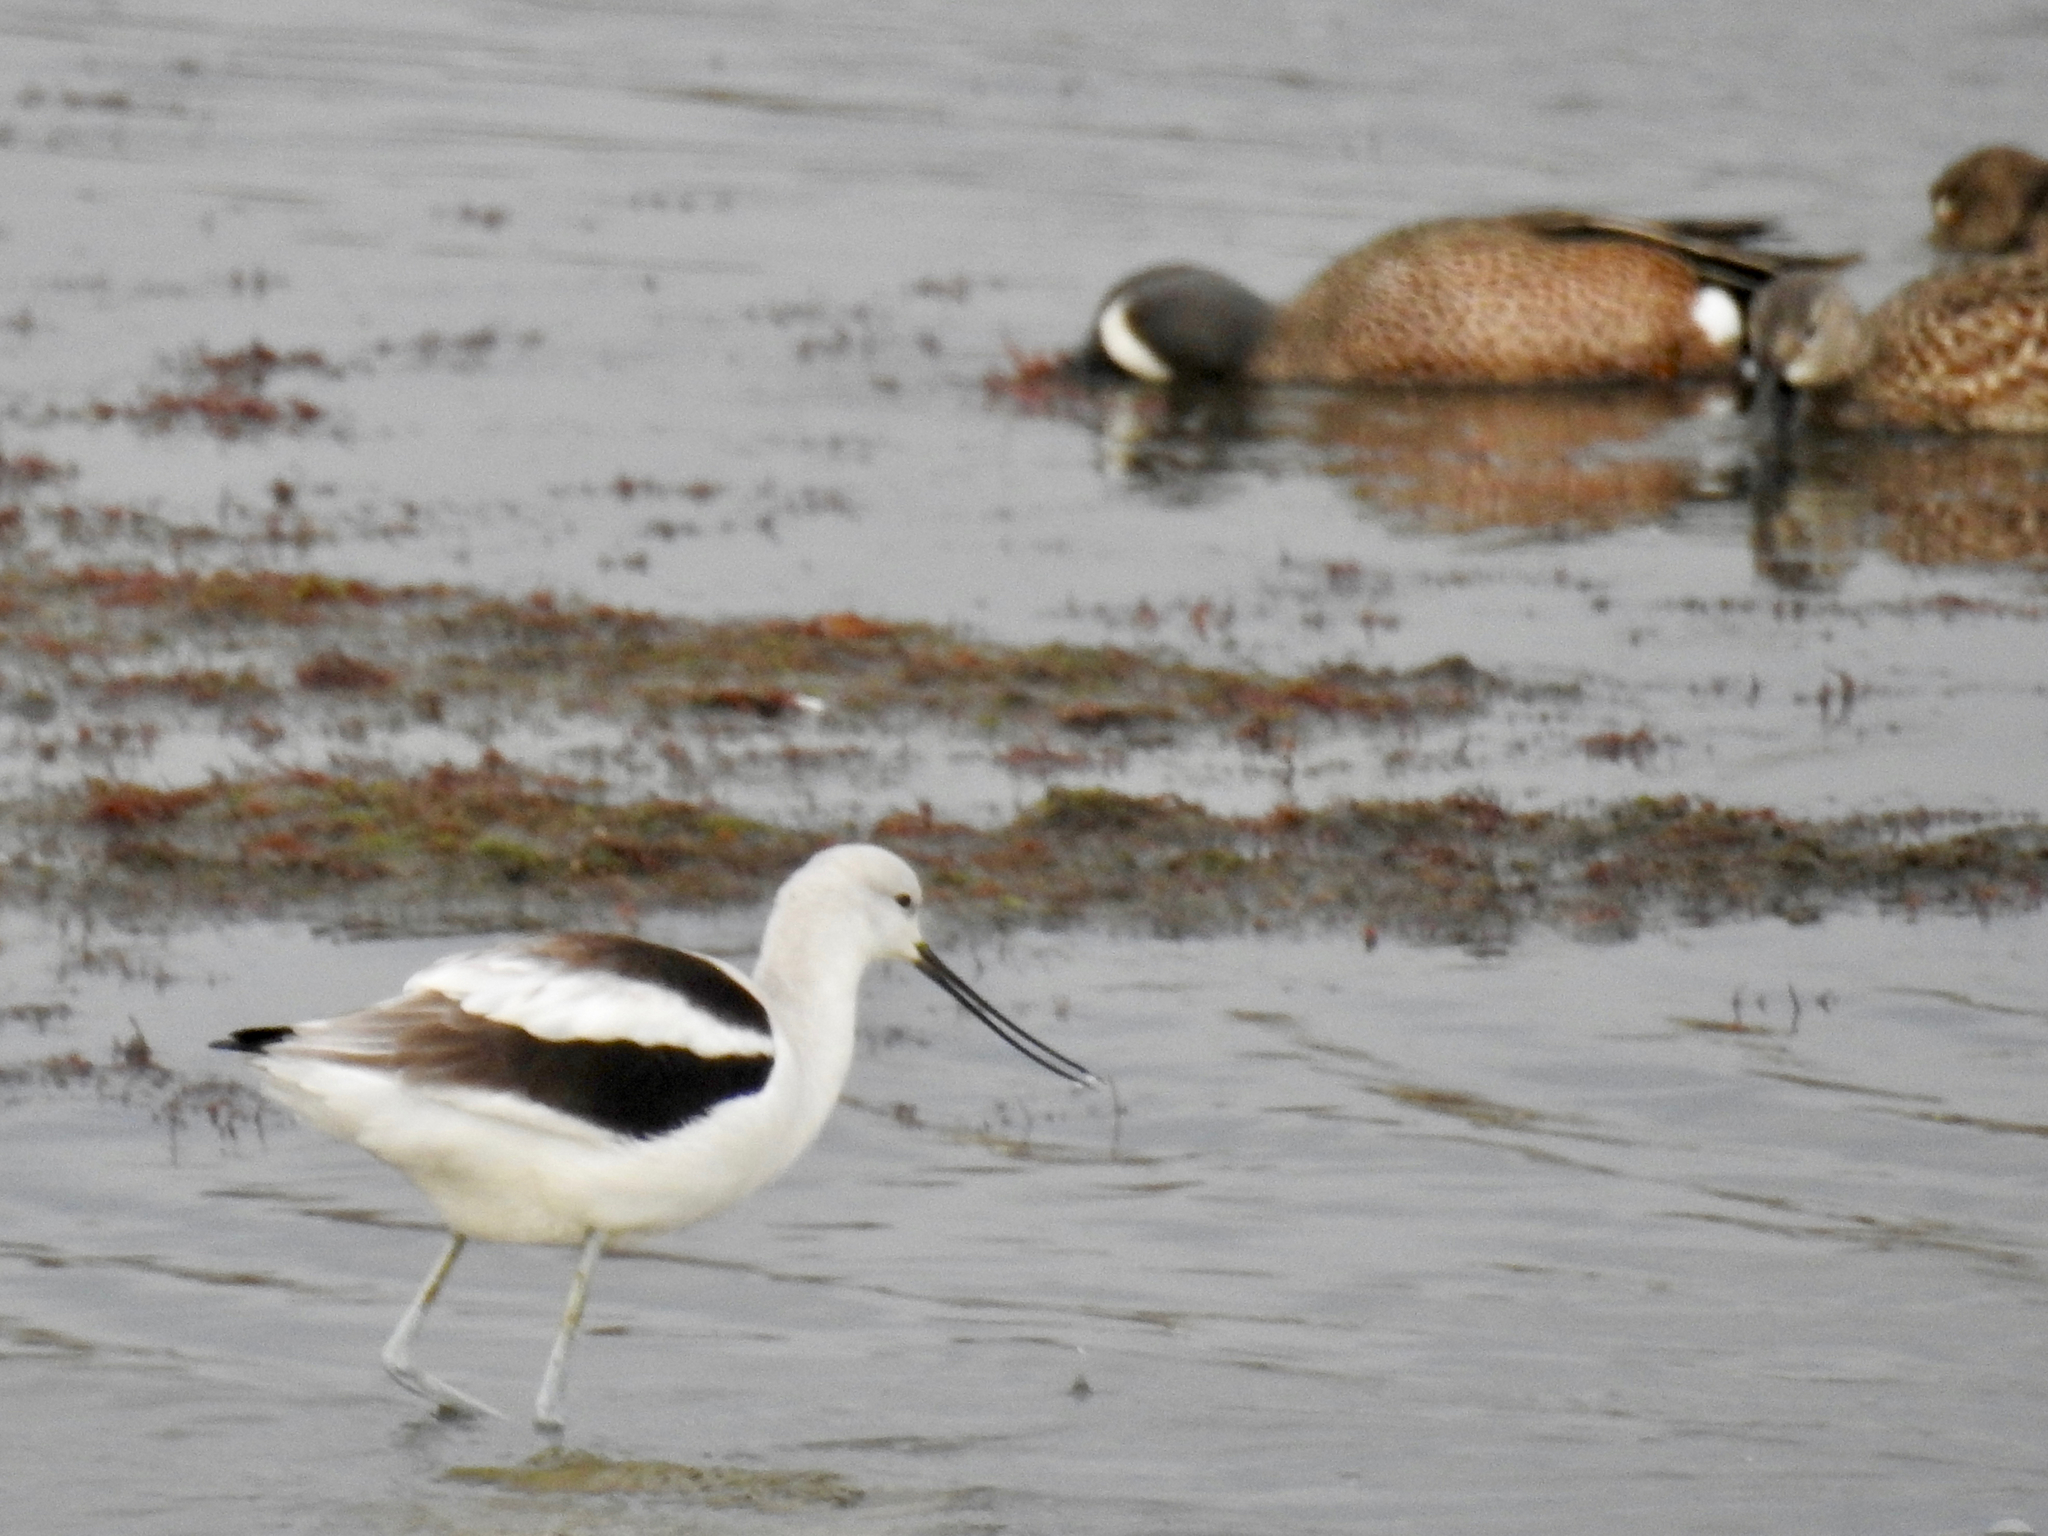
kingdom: Animalia
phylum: Chordata
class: Aves
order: Charadriiformes
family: Recurvirostridae
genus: Recurvirostra
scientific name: Recurvirostra americana
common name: American avocet
